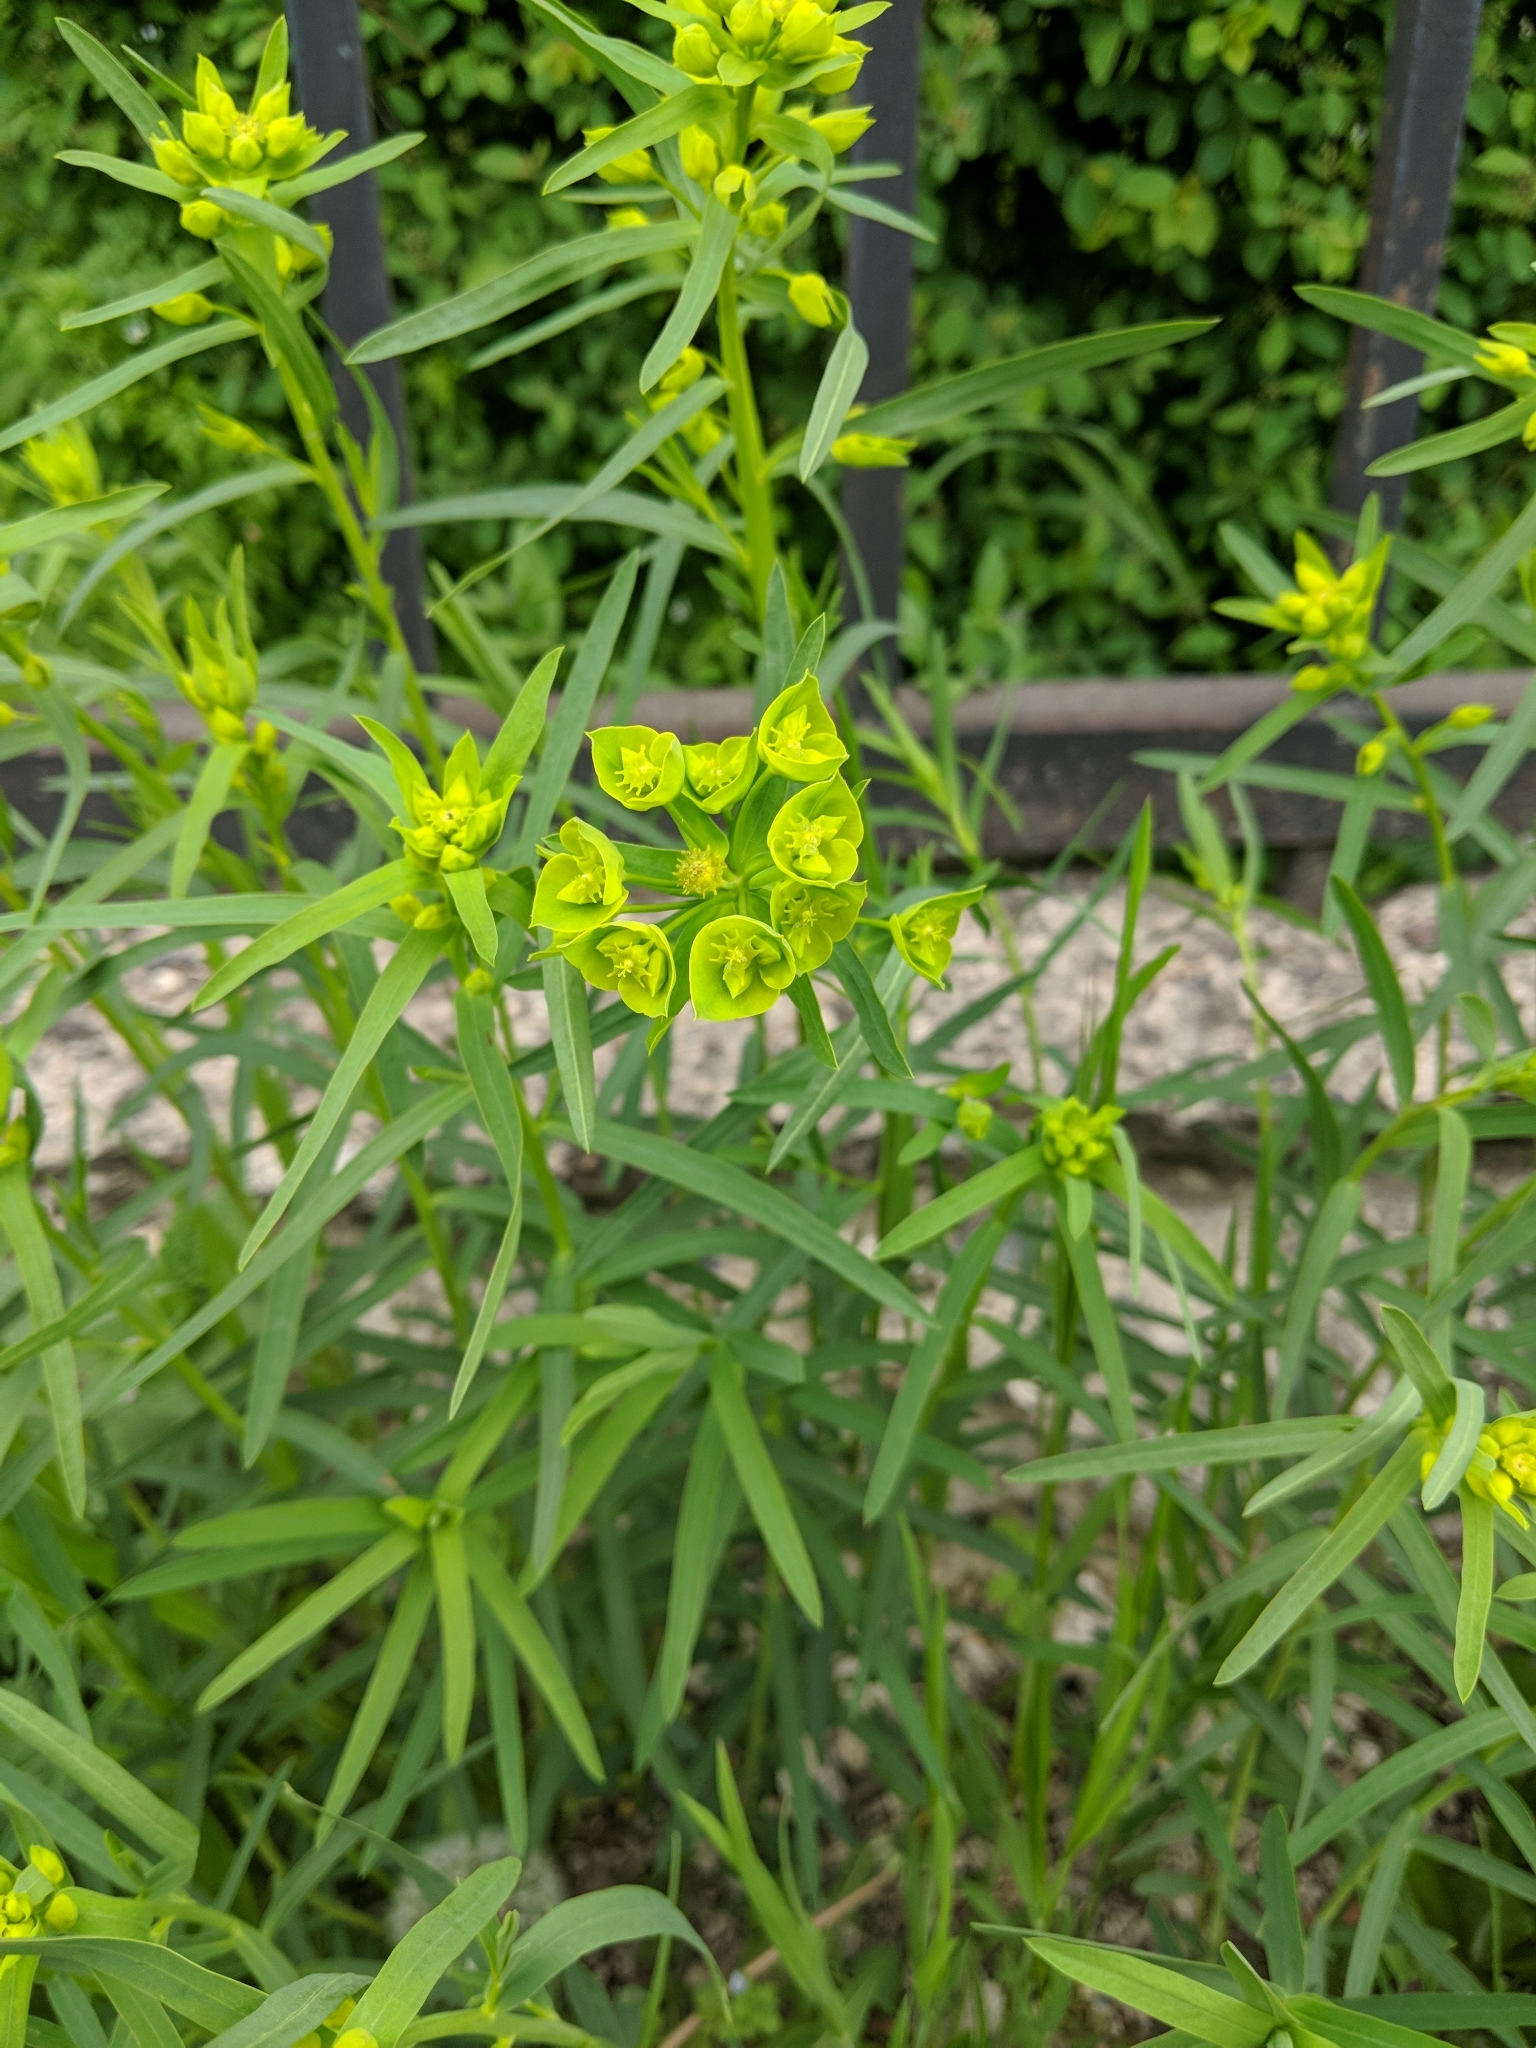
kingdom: Plantae
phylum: Tracheophyta
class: Magnoliopsida
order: Malpighiales
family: Euphorbiaceae
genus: Euphorbia
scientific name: Euphorbia virgata
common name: Leafy spurge
